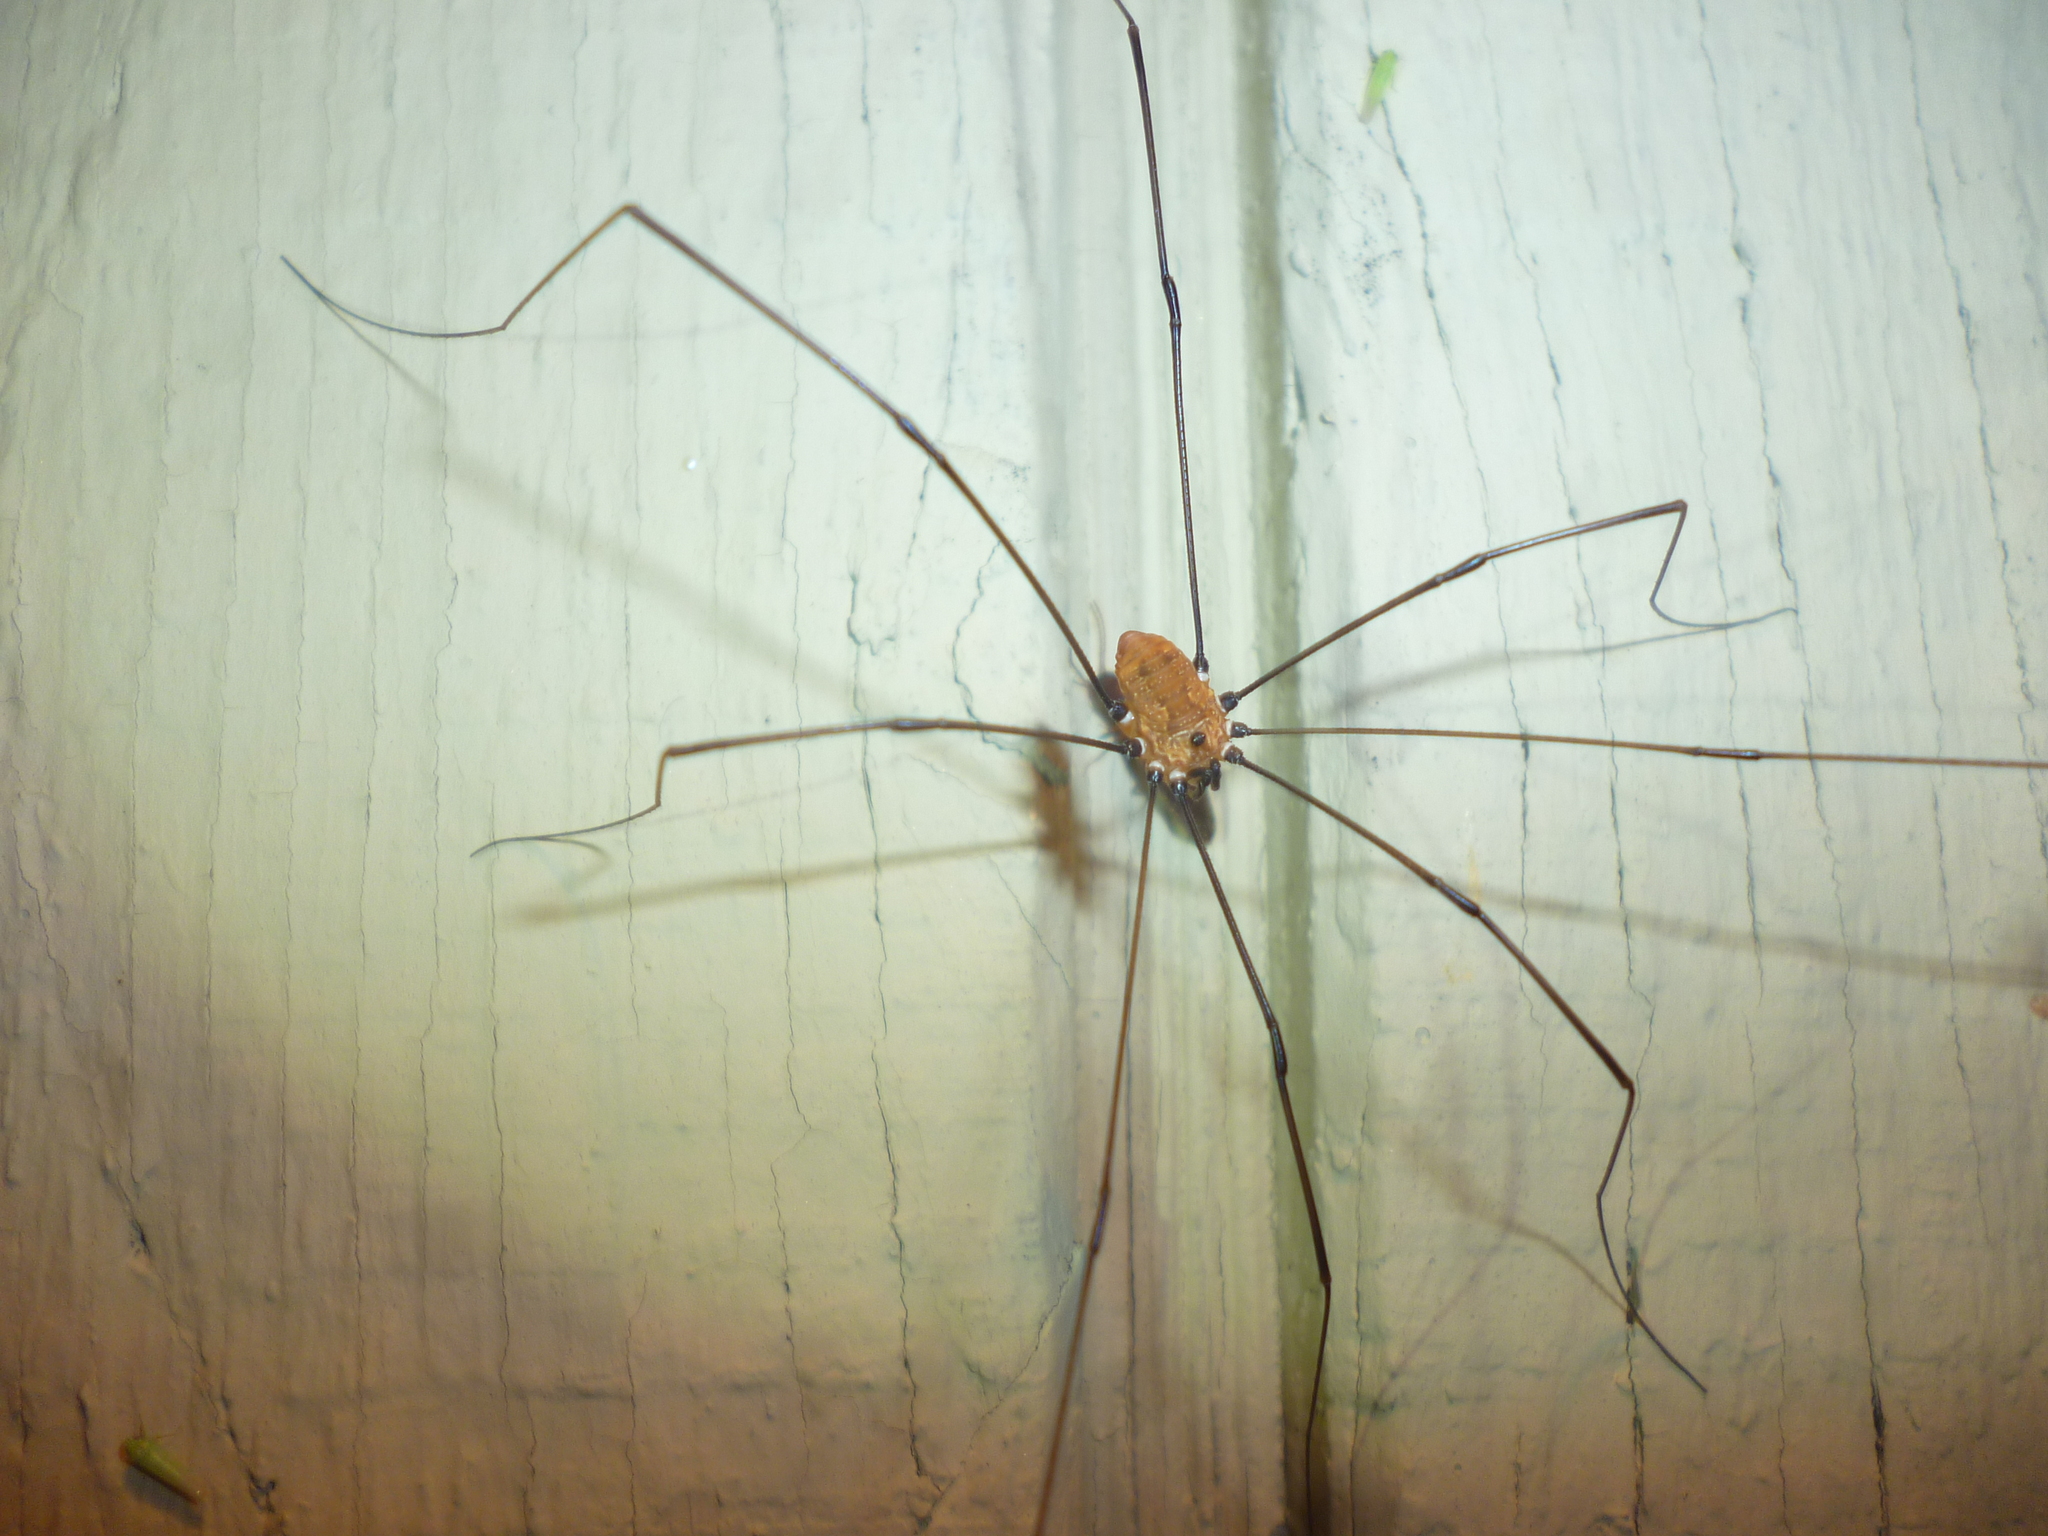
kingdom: Animalia
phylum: Arthropoda
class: Arachnida
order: Opiliones
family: Sclerosomatidae
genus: Leiobunum
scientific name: Leiobunum nigropalpi
